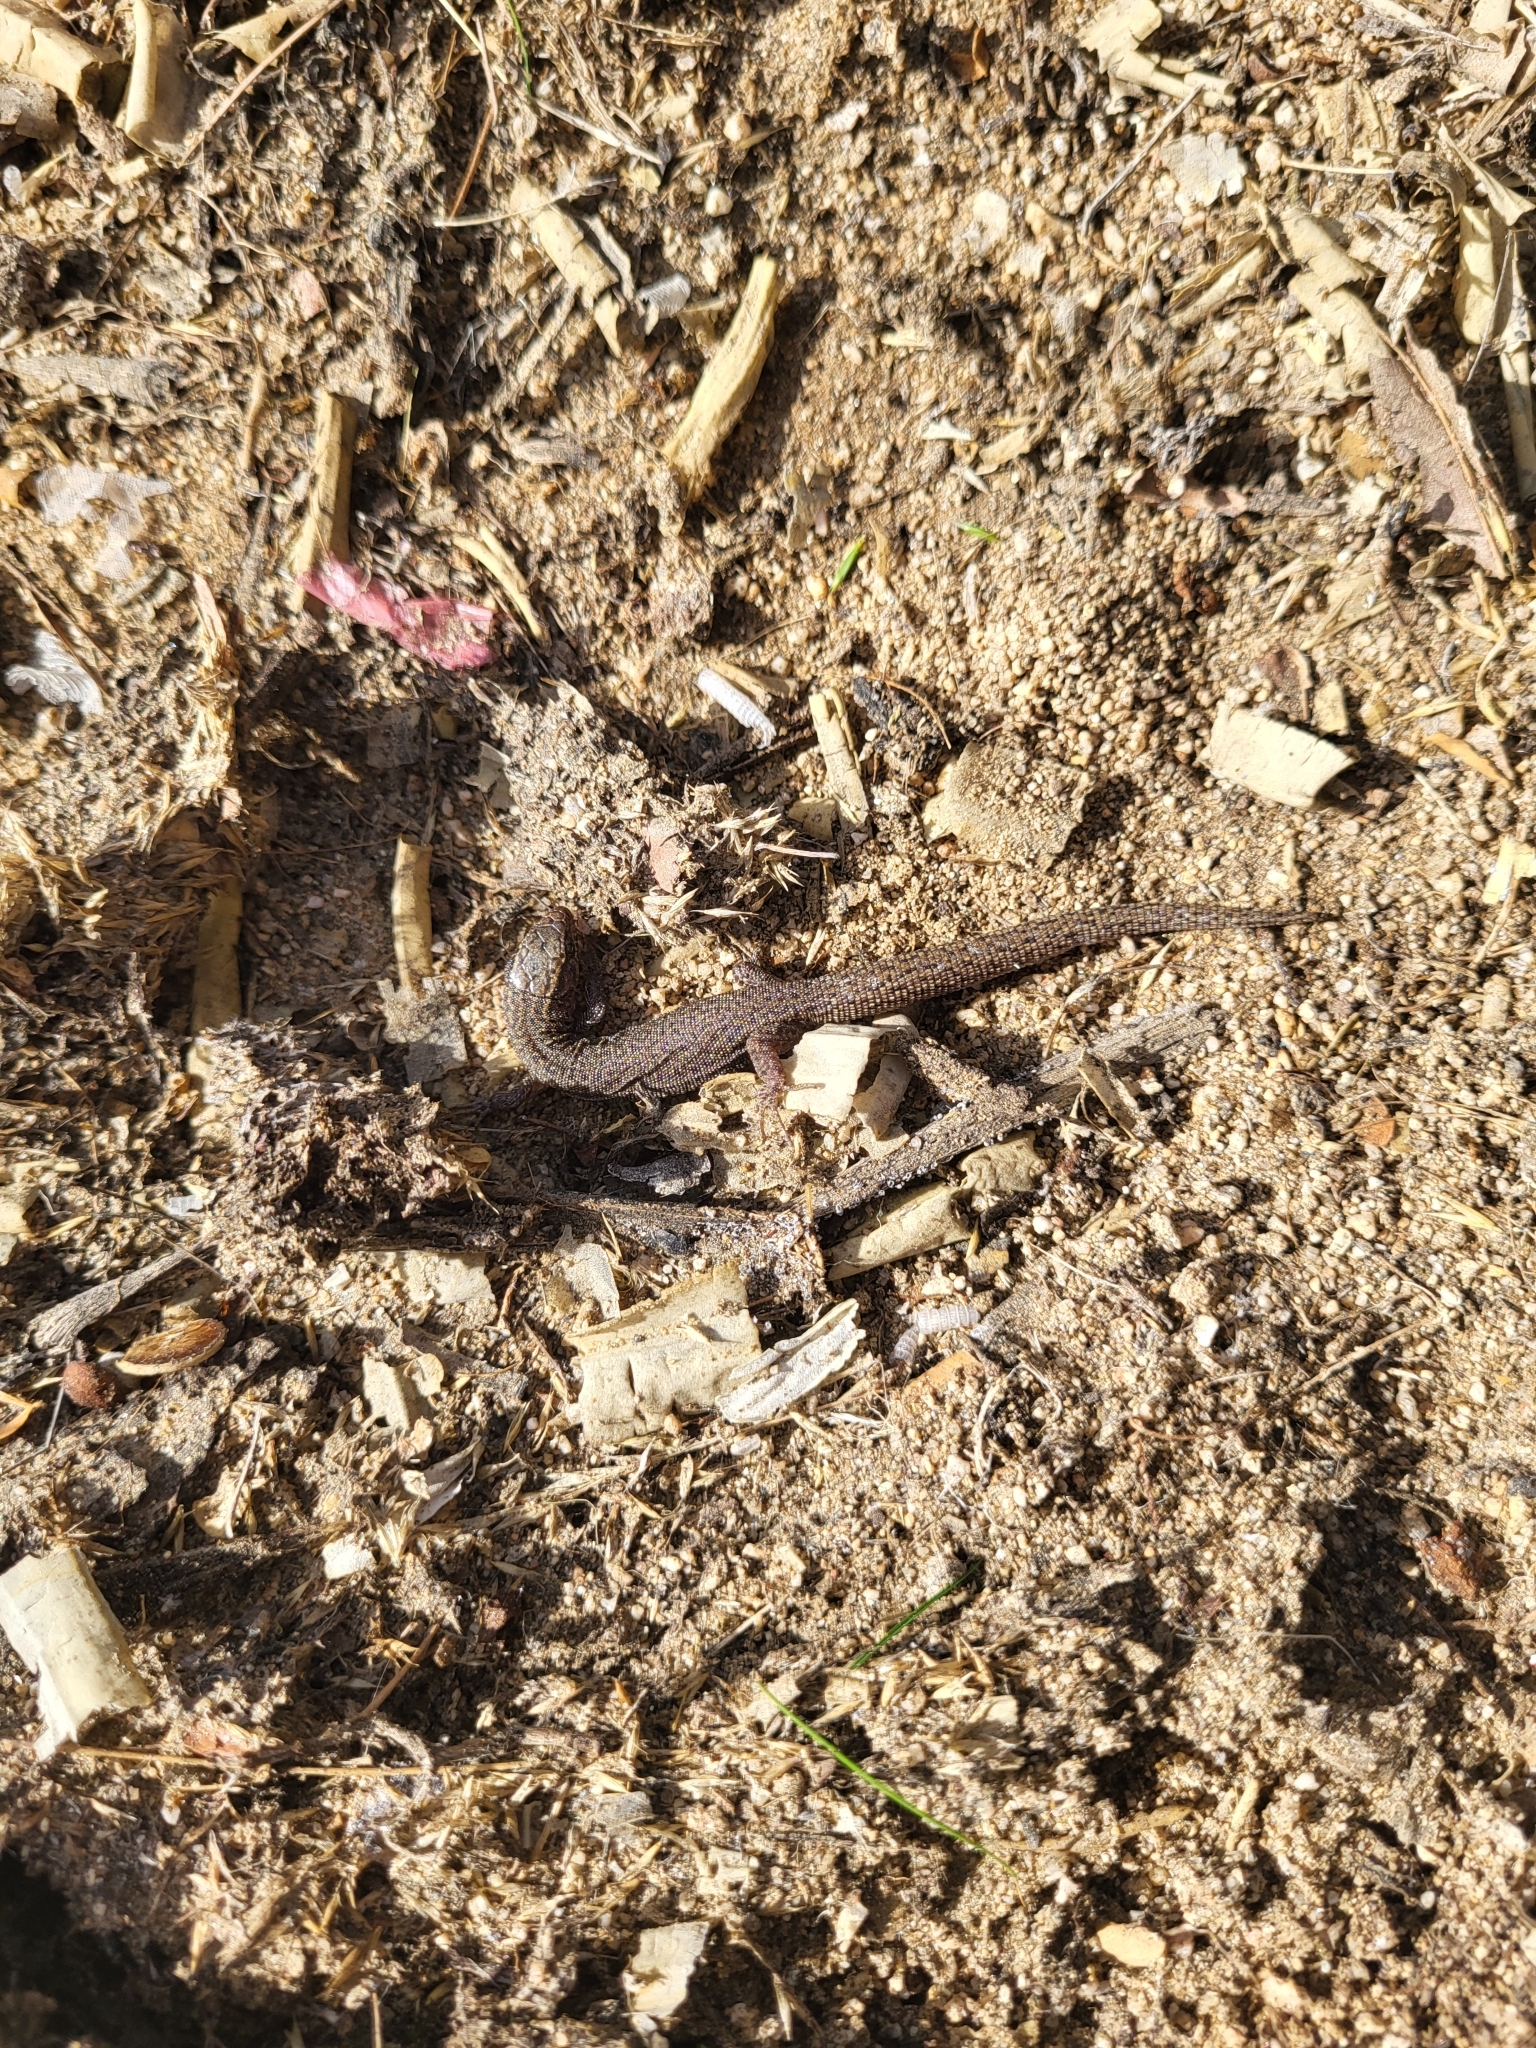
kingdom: Animalia
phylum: Chordata
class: Squamata
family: Xantusiidae
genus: Xantusia
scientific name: Xantusia vigilis
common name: Desert night lizard
